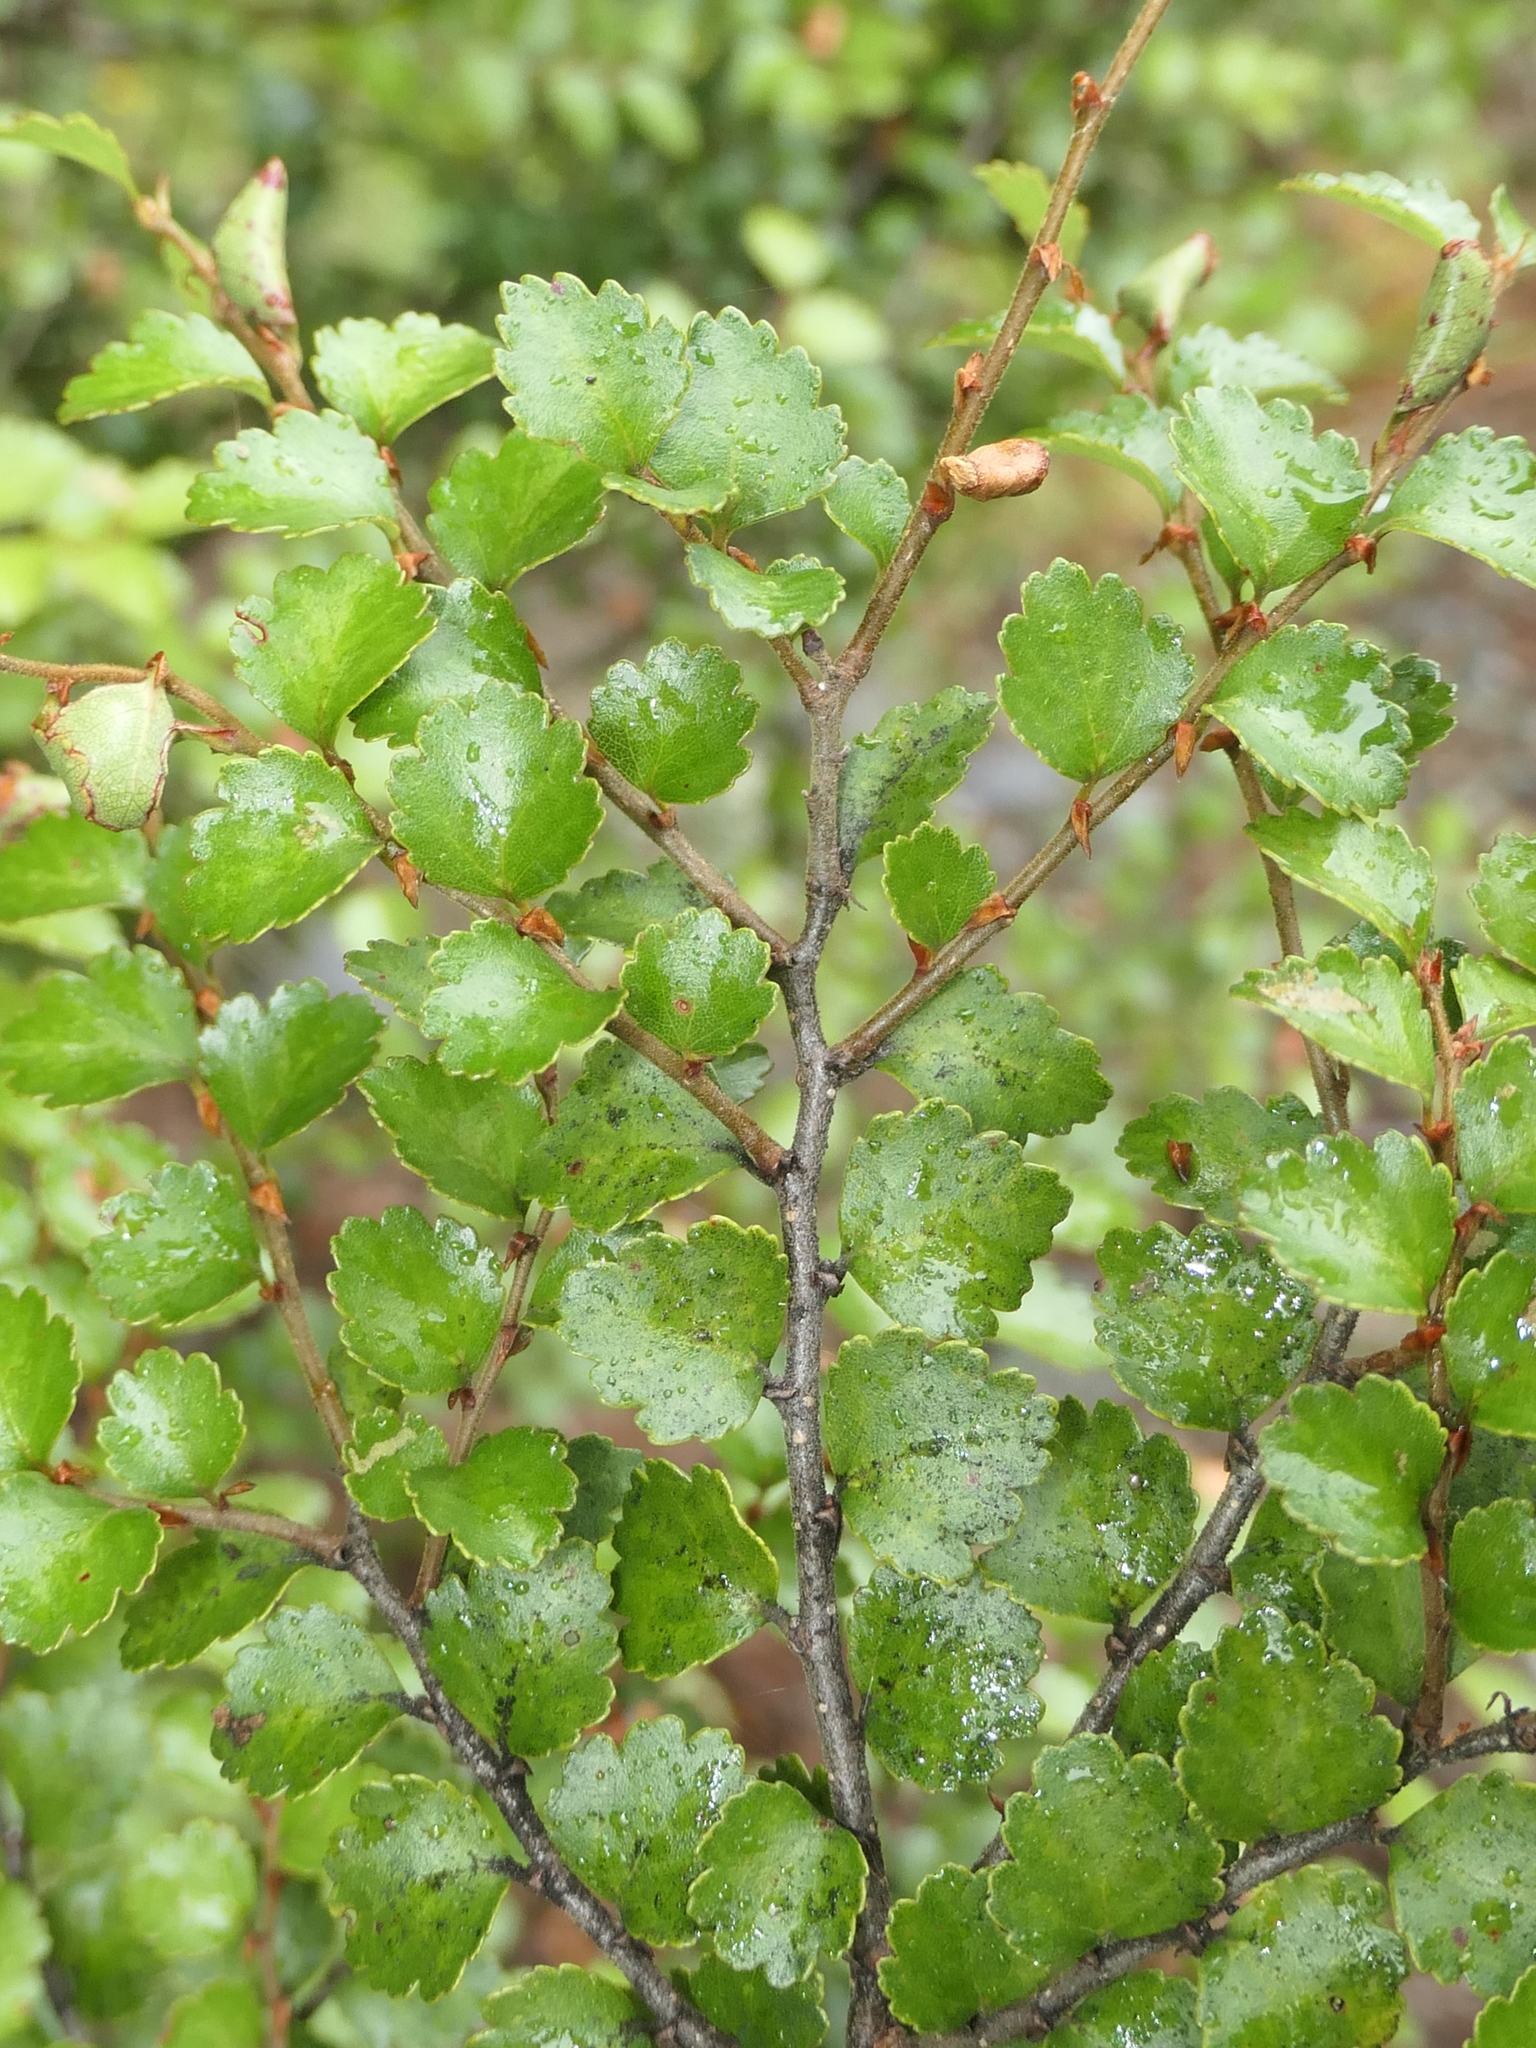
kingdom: Plantae
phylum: Tracheophyta
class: Magnoliopsida
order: Fagales
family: Nothofagaceae
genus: Nothofagus
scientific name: Nothofagus menziesii
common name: Silver beech
